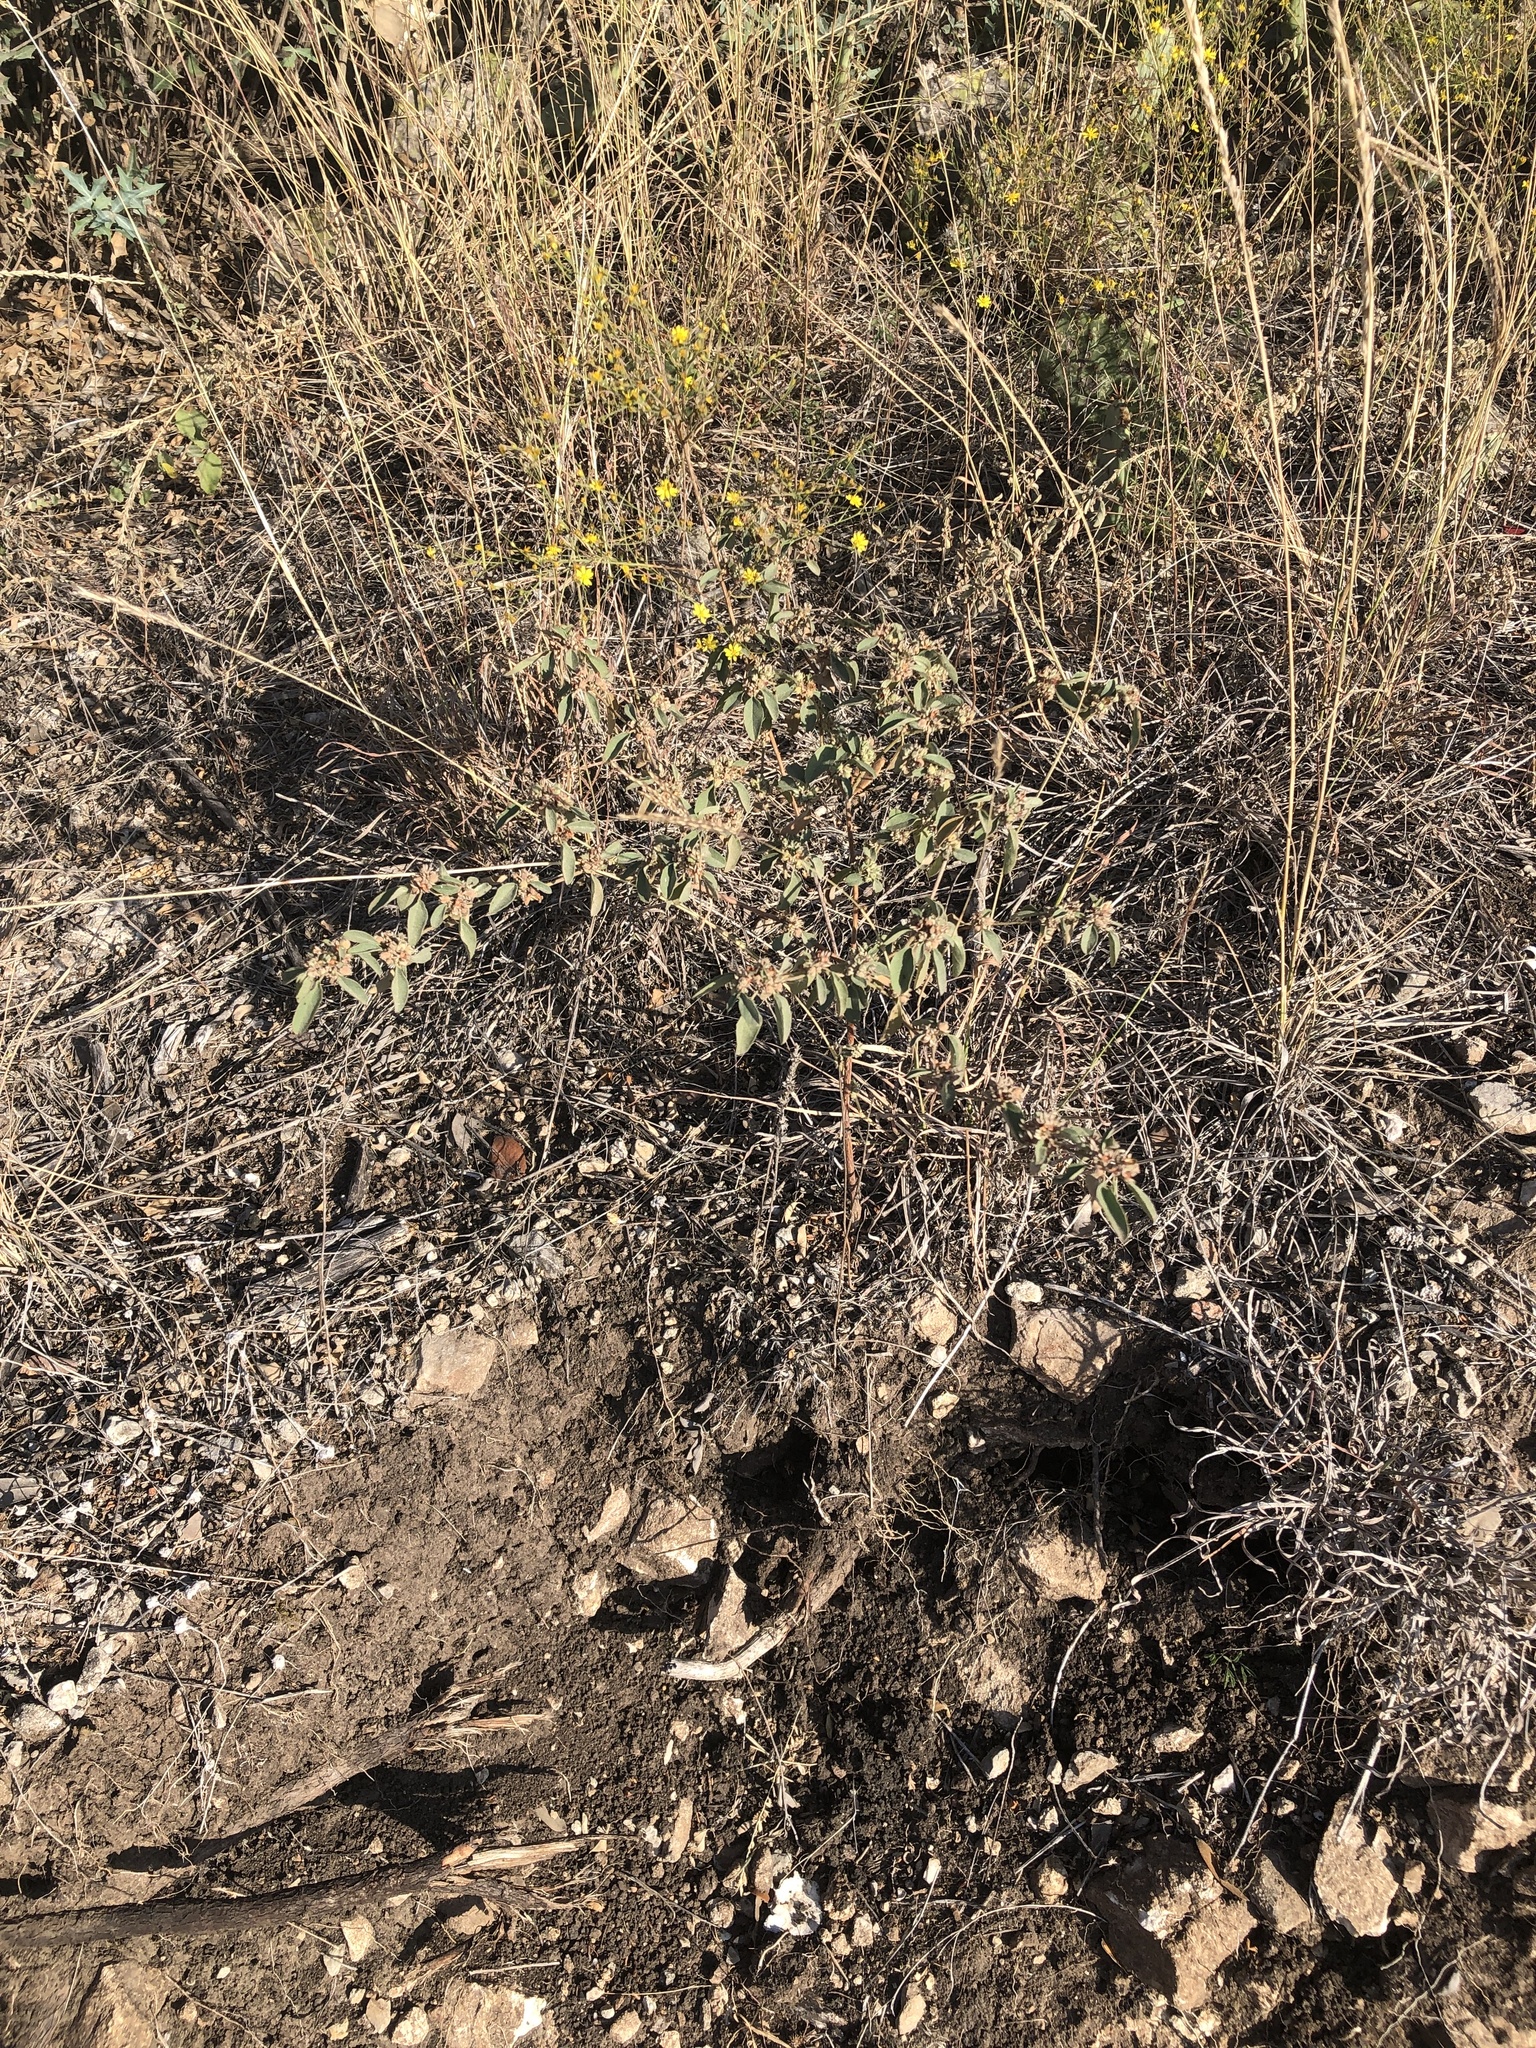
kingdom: Plantae
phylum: Tracheophyta
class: Magnoliopsida
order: Malpighiales
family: Euphorbiaceae
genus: Croton
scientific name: Croton monanthogynus
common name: One-seed croton
